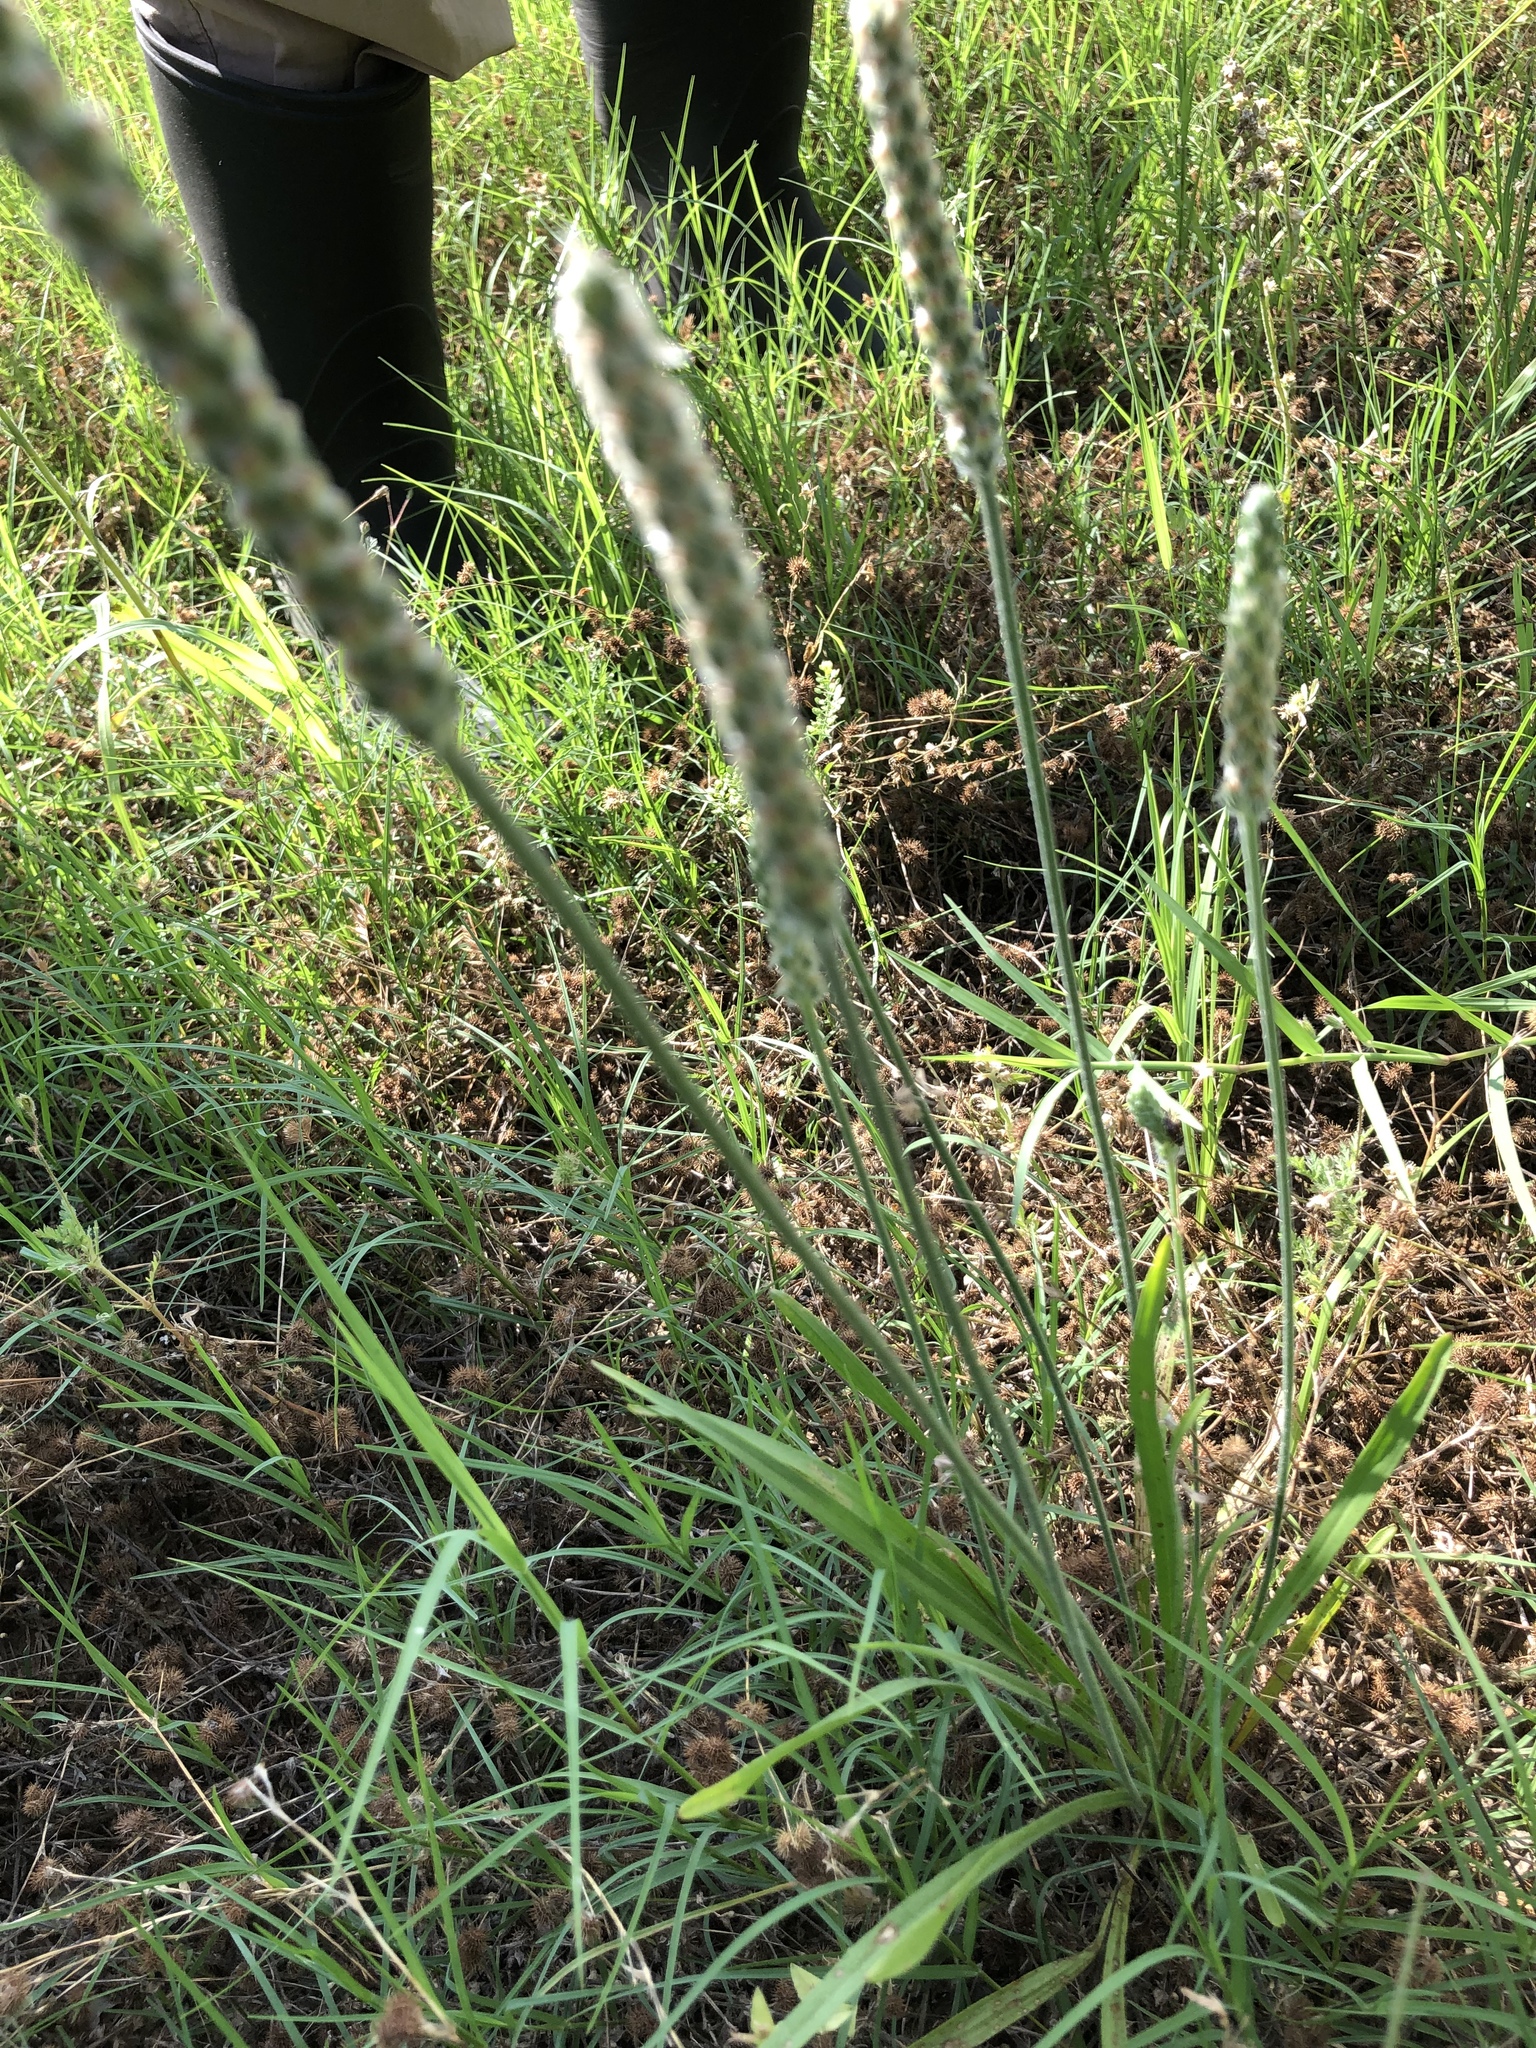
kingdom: Plantae
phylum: Tracheophyta
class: Magnoliopsida
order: Lamiales
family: Plantaginaceae
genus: Plantago
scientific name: Plantago wrightiana
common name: Wright's plantain
